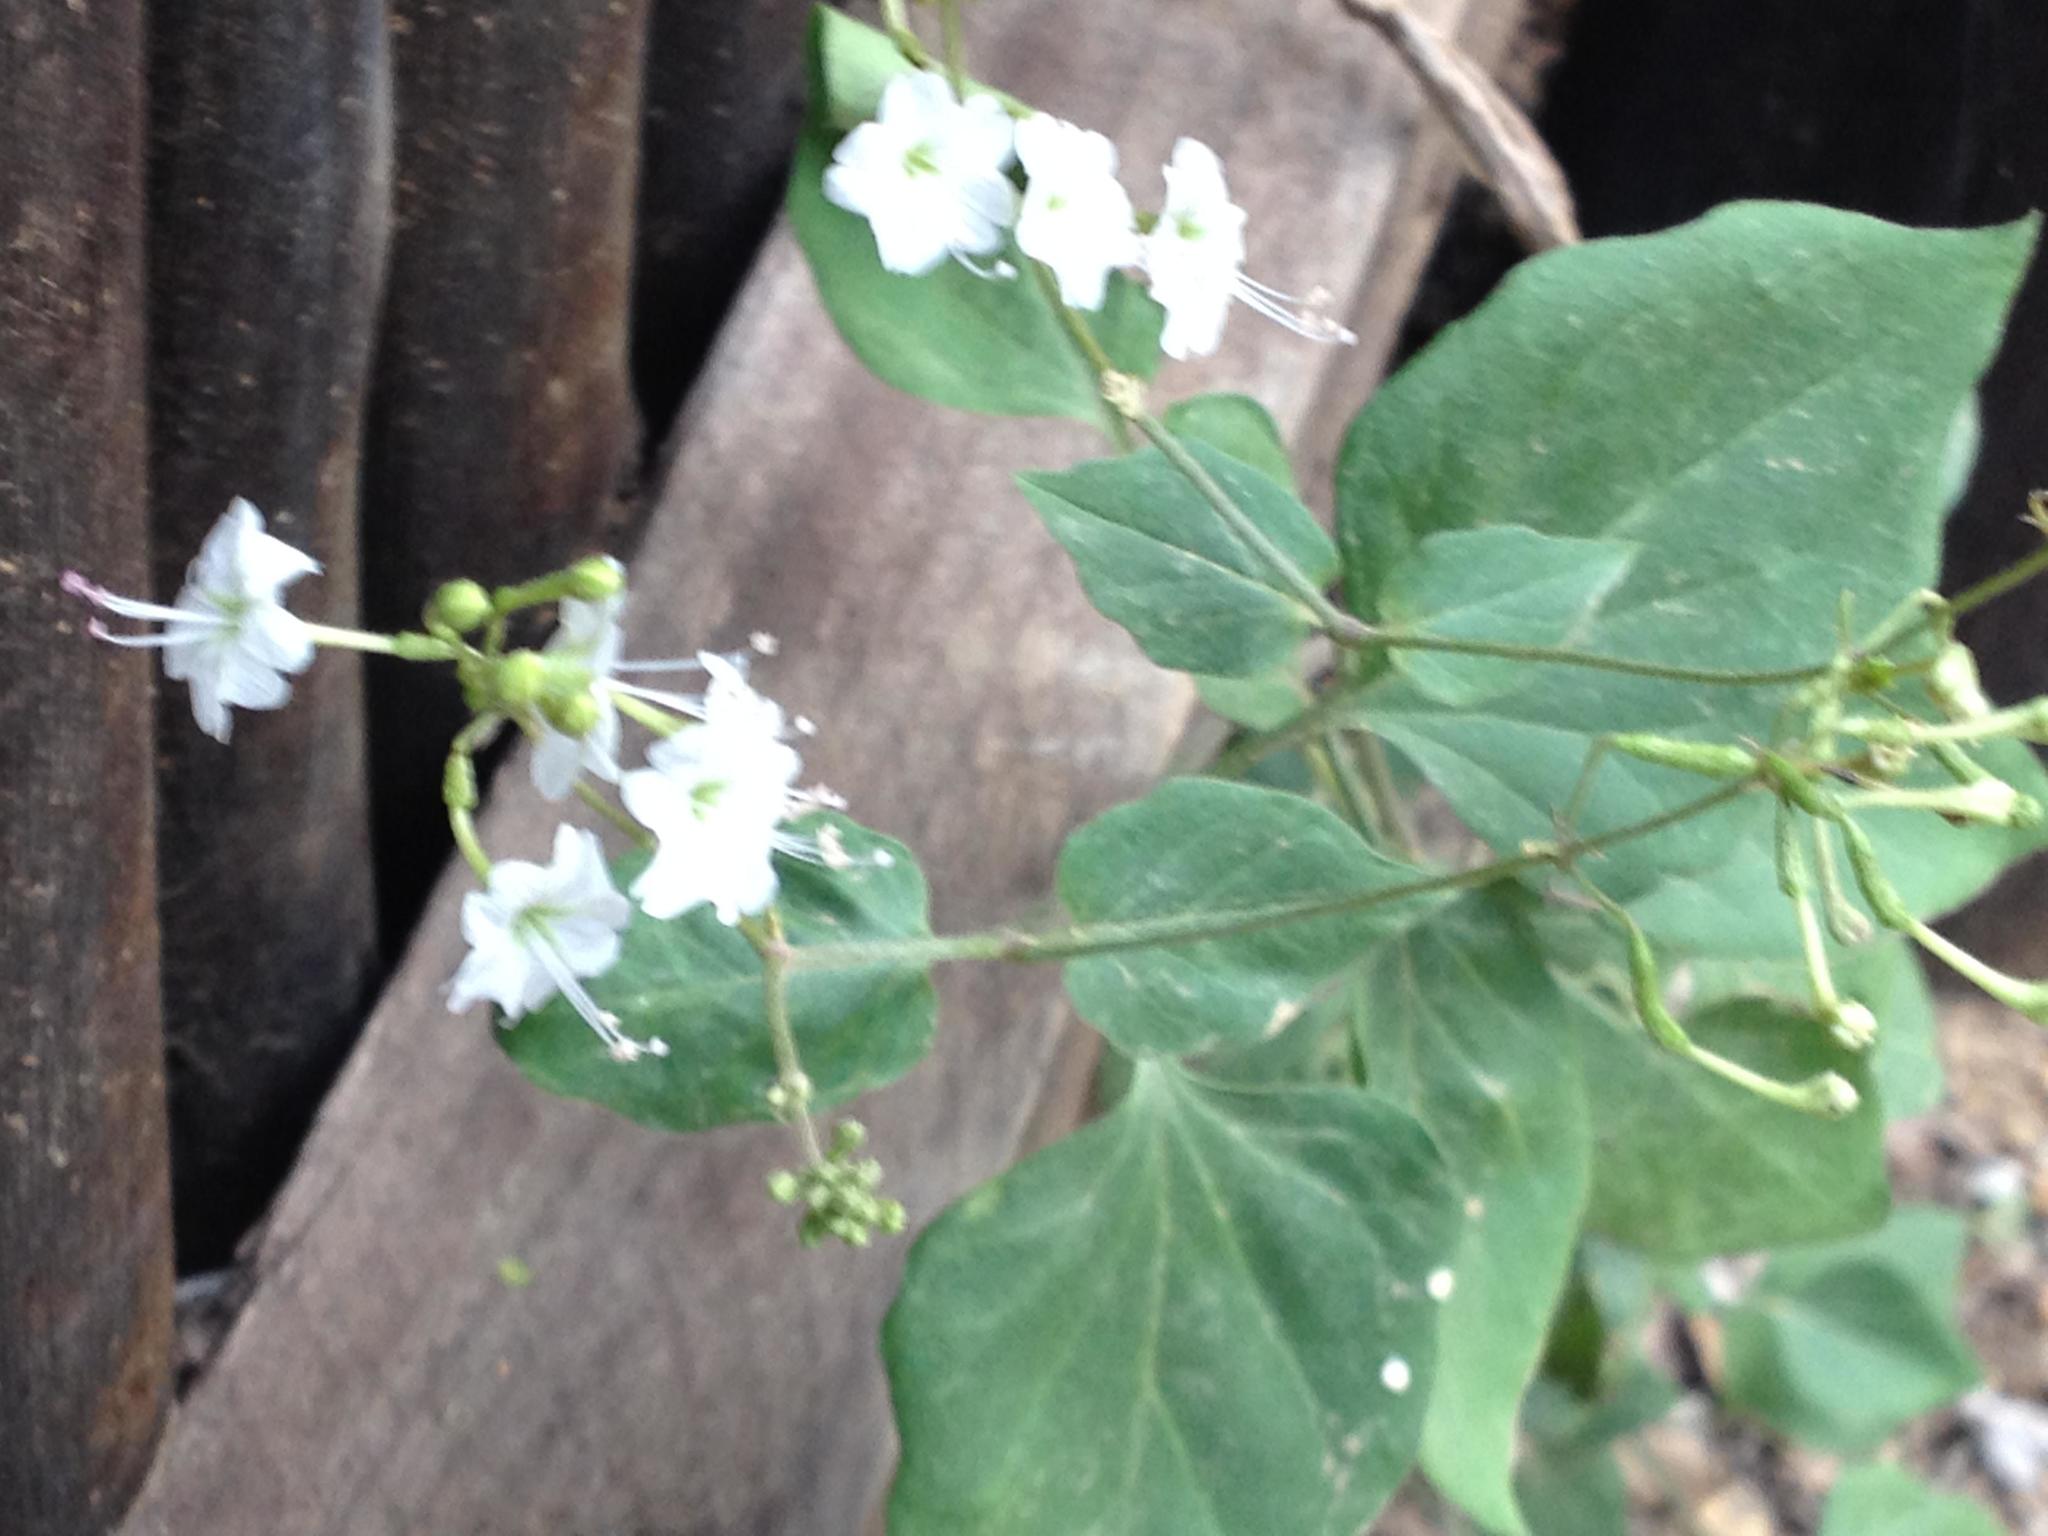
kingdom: Plantae
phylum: Tracheophyta
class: Magnoliopsida
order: Caryophyllales
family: Nyctaginaceae
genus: Commicarpus
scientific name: Commicarpus plumbagineus
